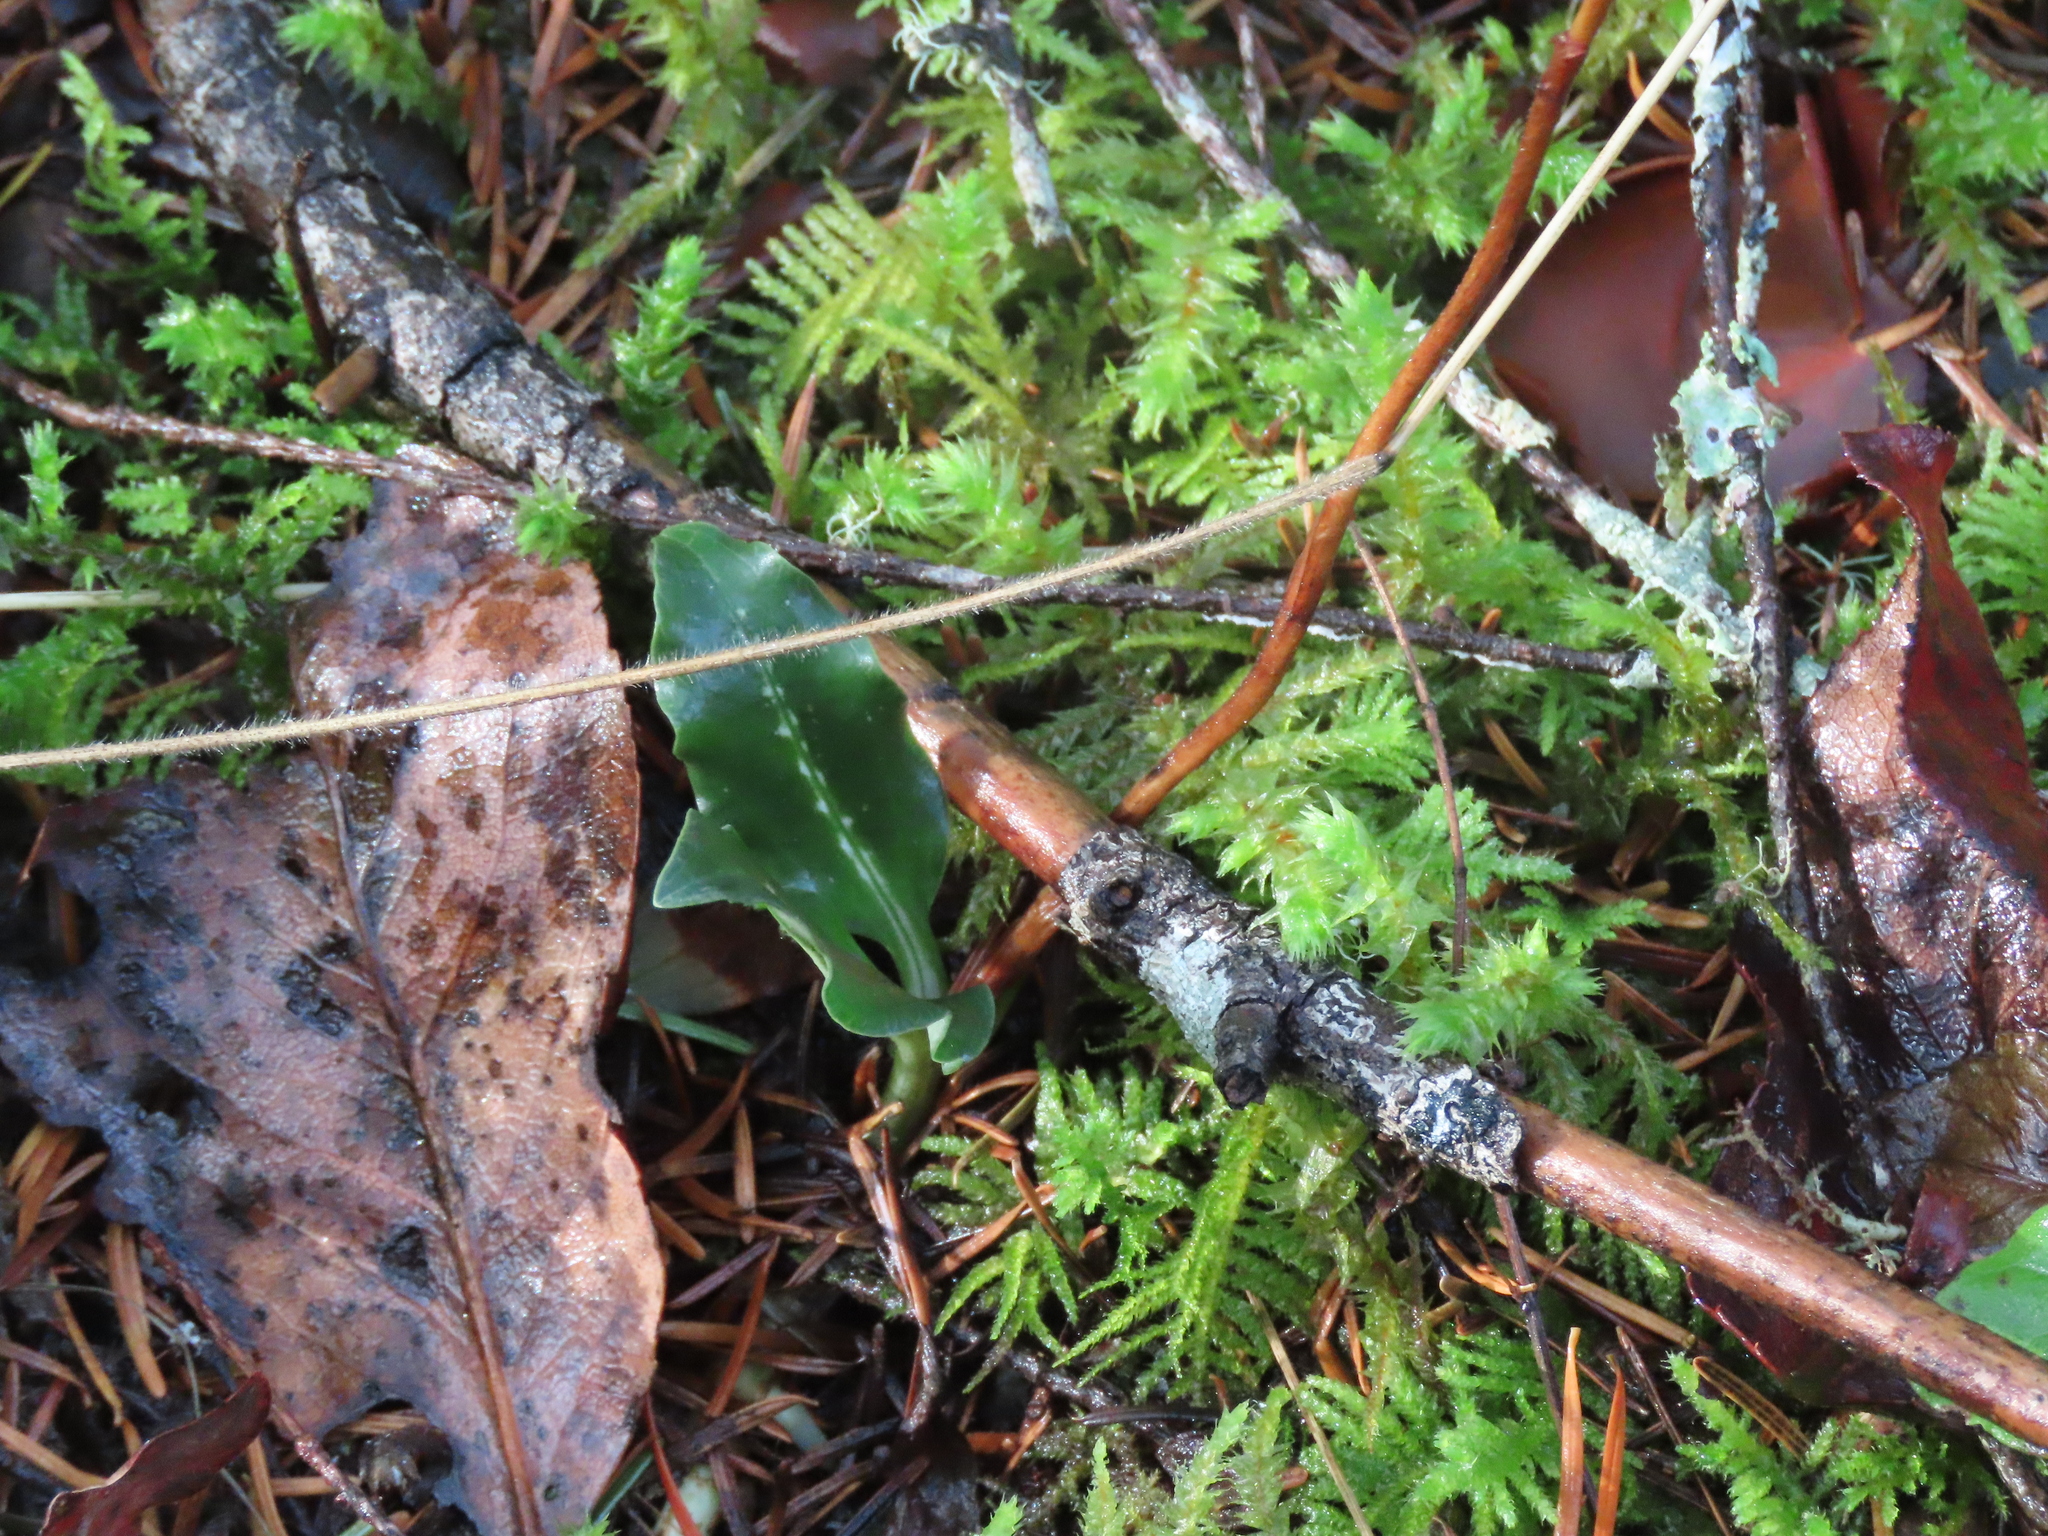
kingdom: Plantae
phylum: Tracheophyta
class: Liliopsida
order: Asparagales
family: Orchidaceae
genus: Goodyera
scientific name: Goodyera oblongifolia
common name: Giant rattlesnake-plantain
